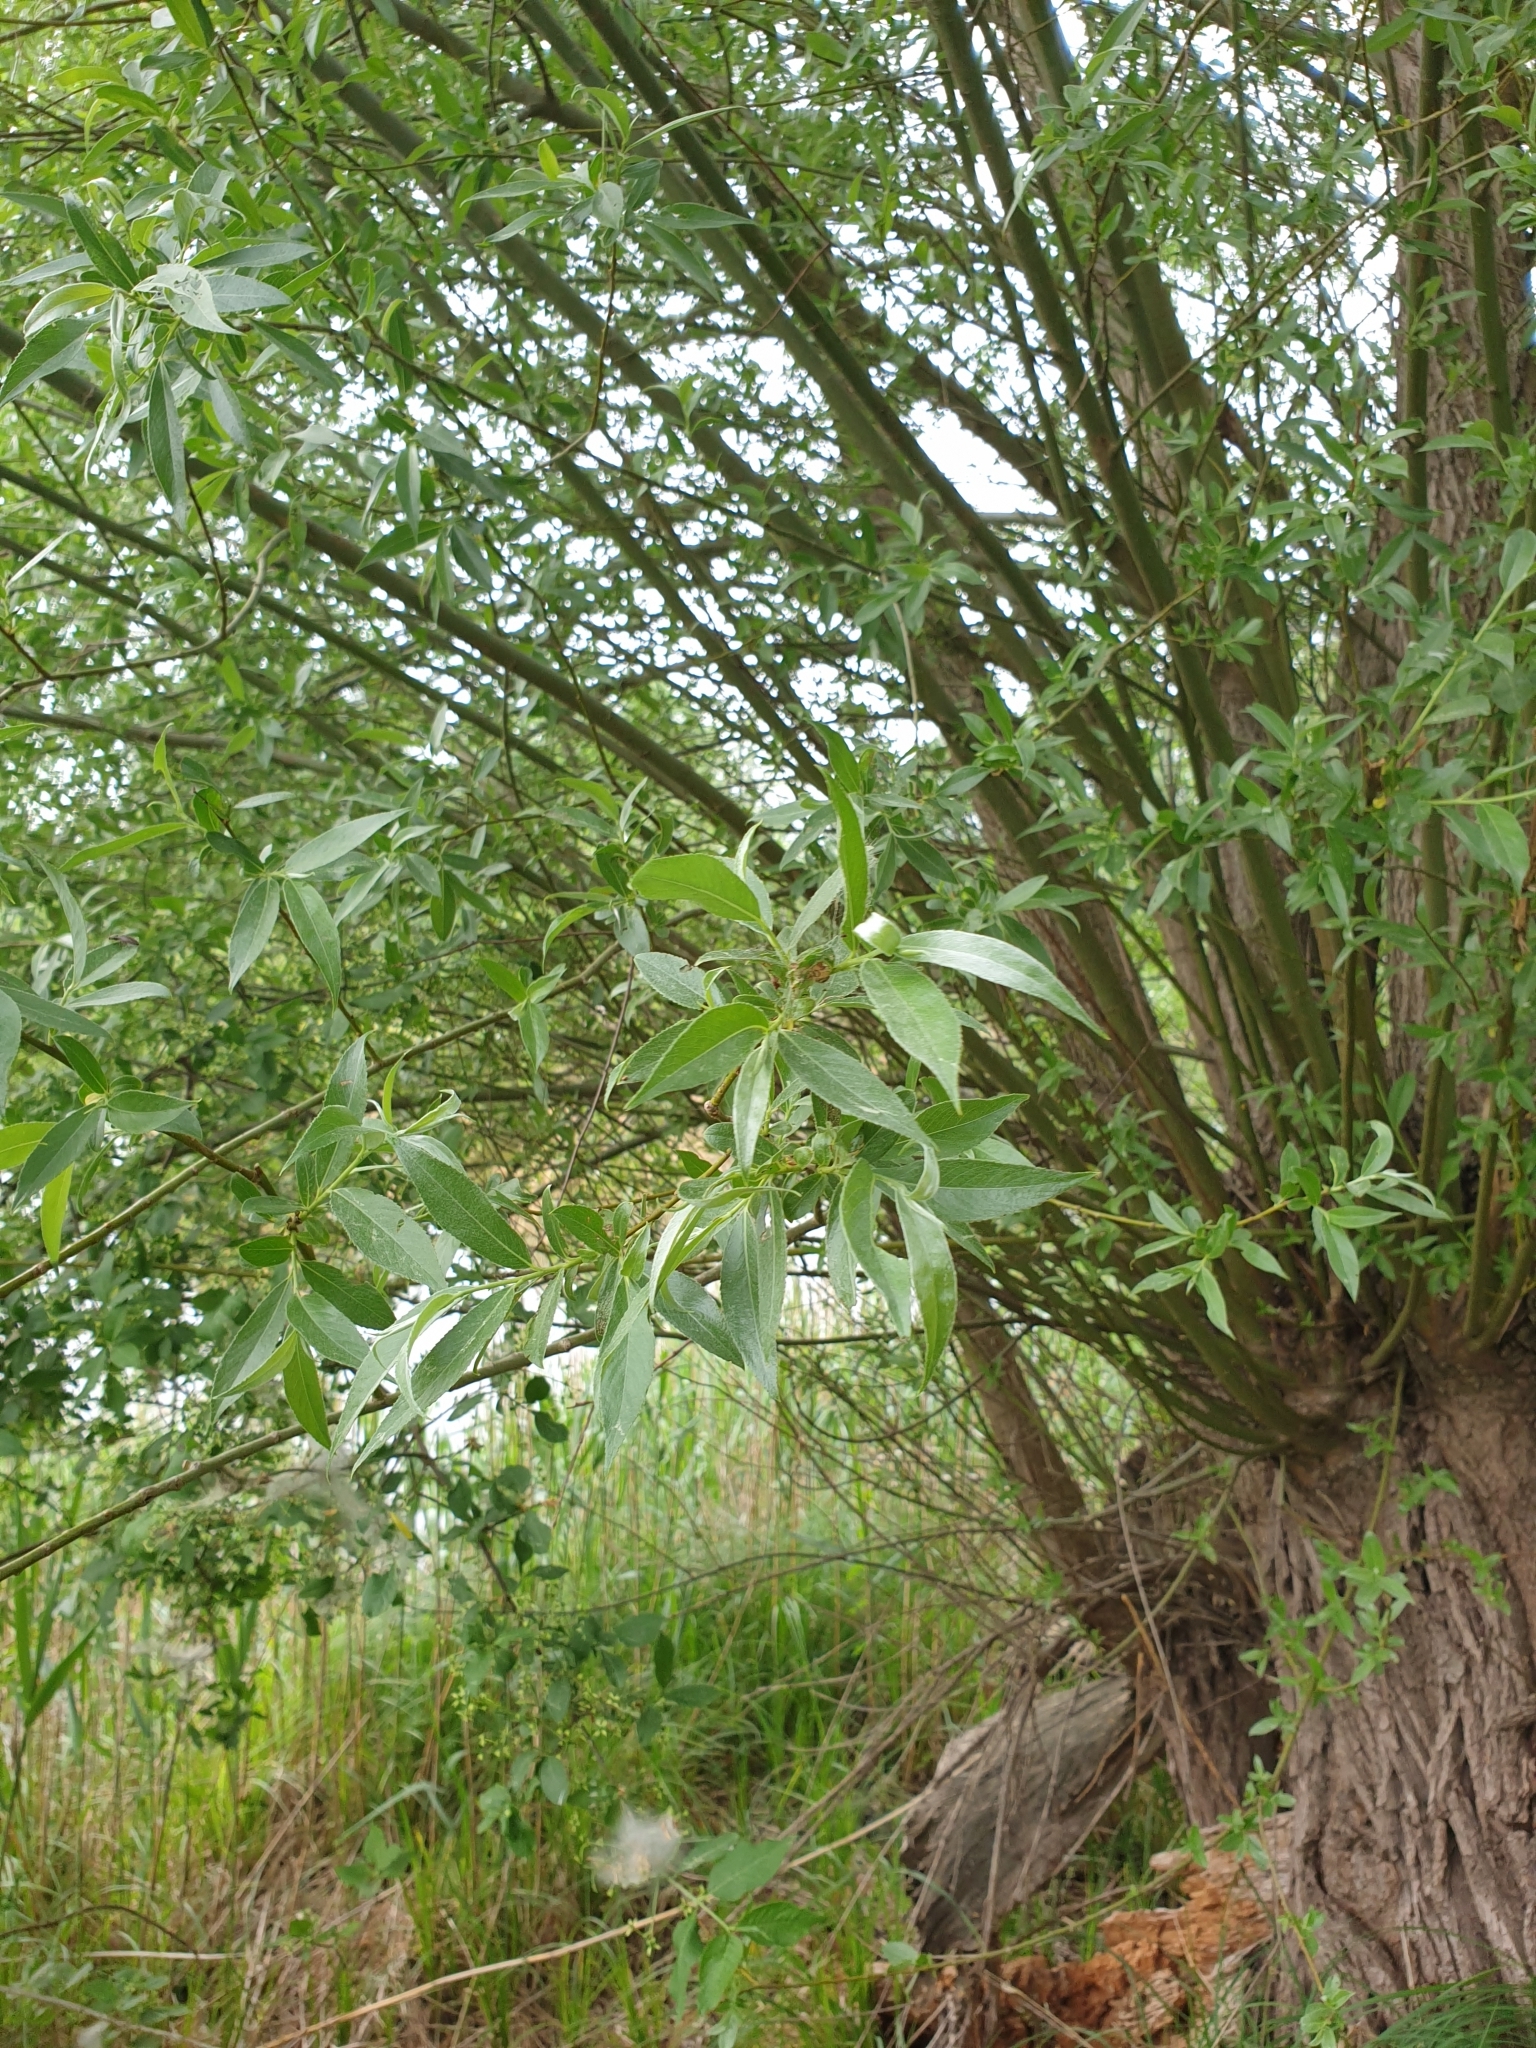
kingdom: Plantae
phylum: Tracheophyta
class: Magnoliopsida
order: Malpighiales
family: Salicaceae
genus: Salix
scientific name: Salix alba
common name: White willow
